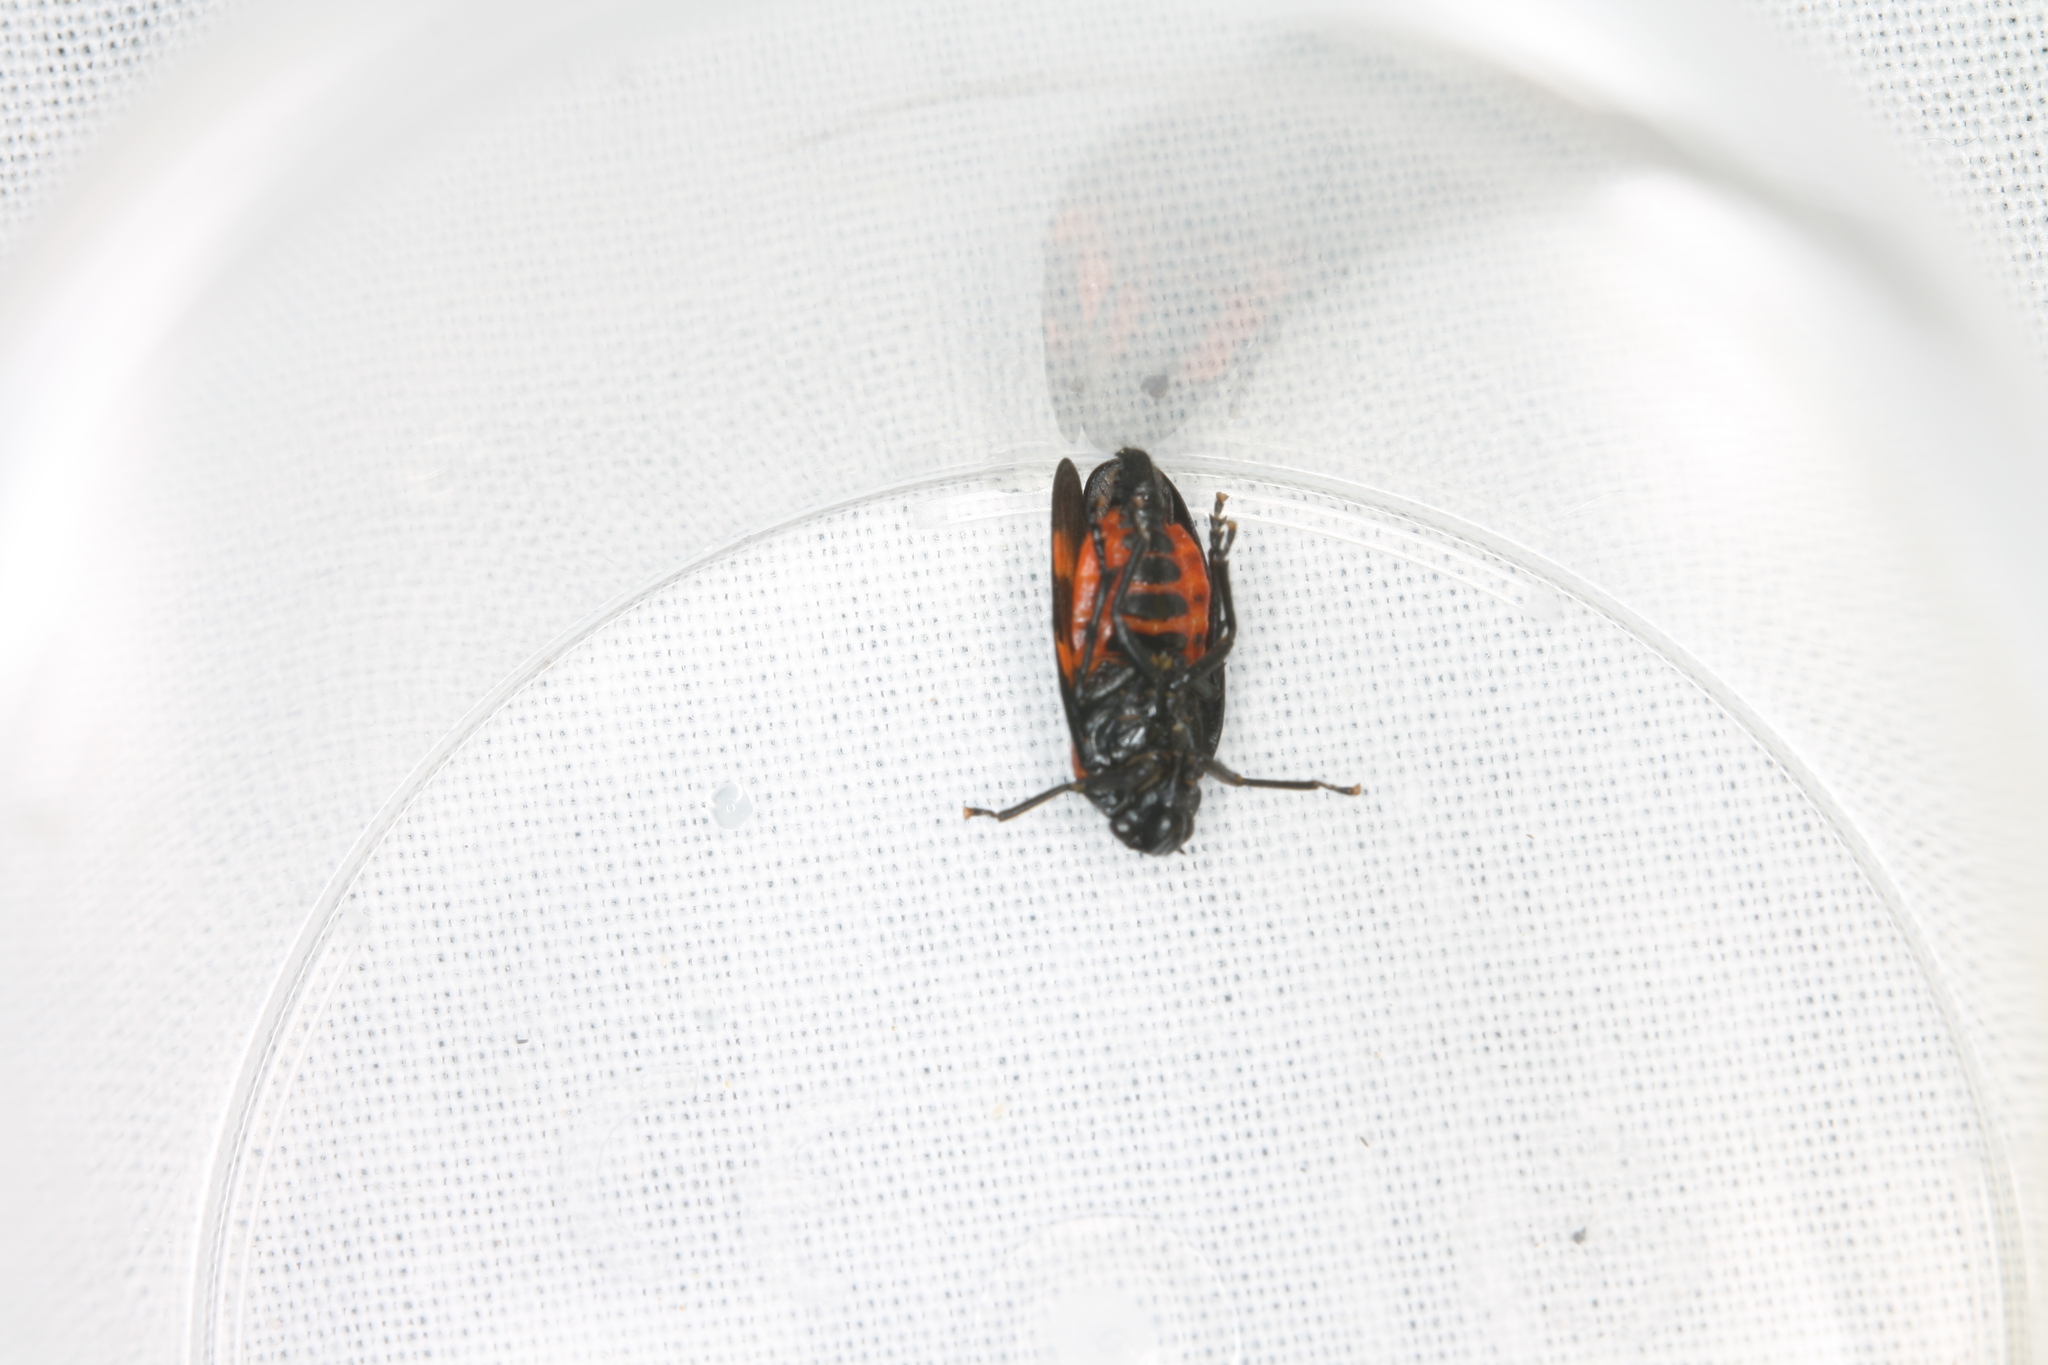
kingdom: Animalia
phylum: Arthropoda
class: Insecta
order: Hemiptera
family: Cercopidae
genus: Cercopis
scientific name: Cercopis sanguinolenta
